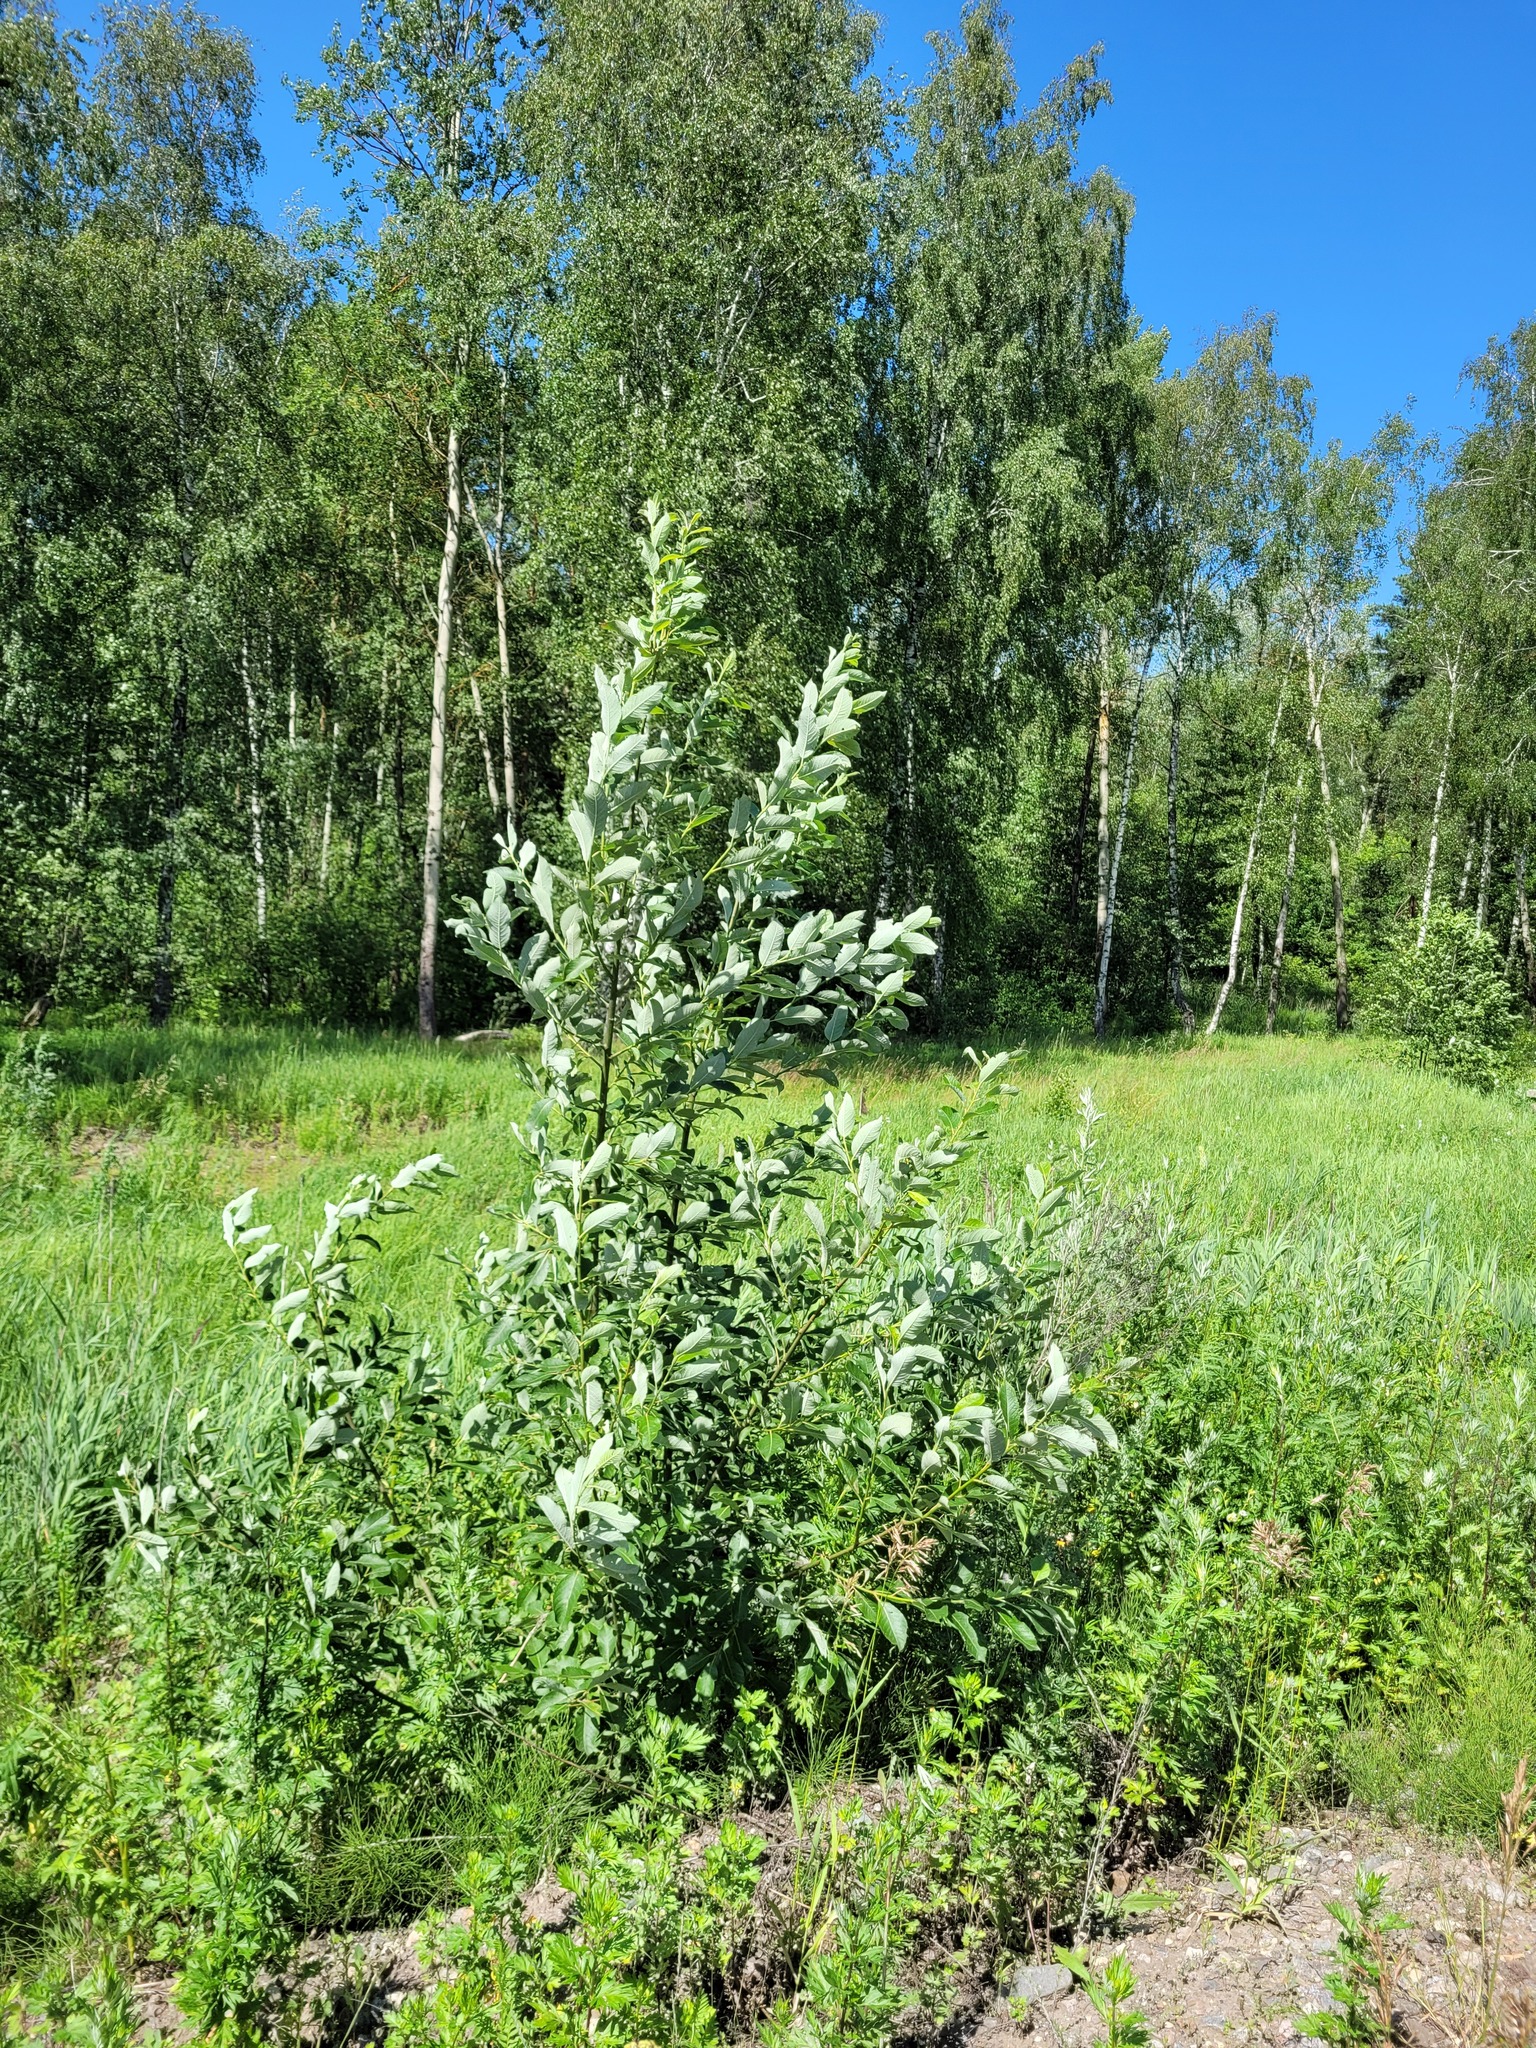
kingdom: Plantae
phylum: Tracheophyta
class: Magnoliopsida
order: Malpighiales
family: Salicaceae
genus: Salix
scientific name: Salix caprea
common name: Goat willow
